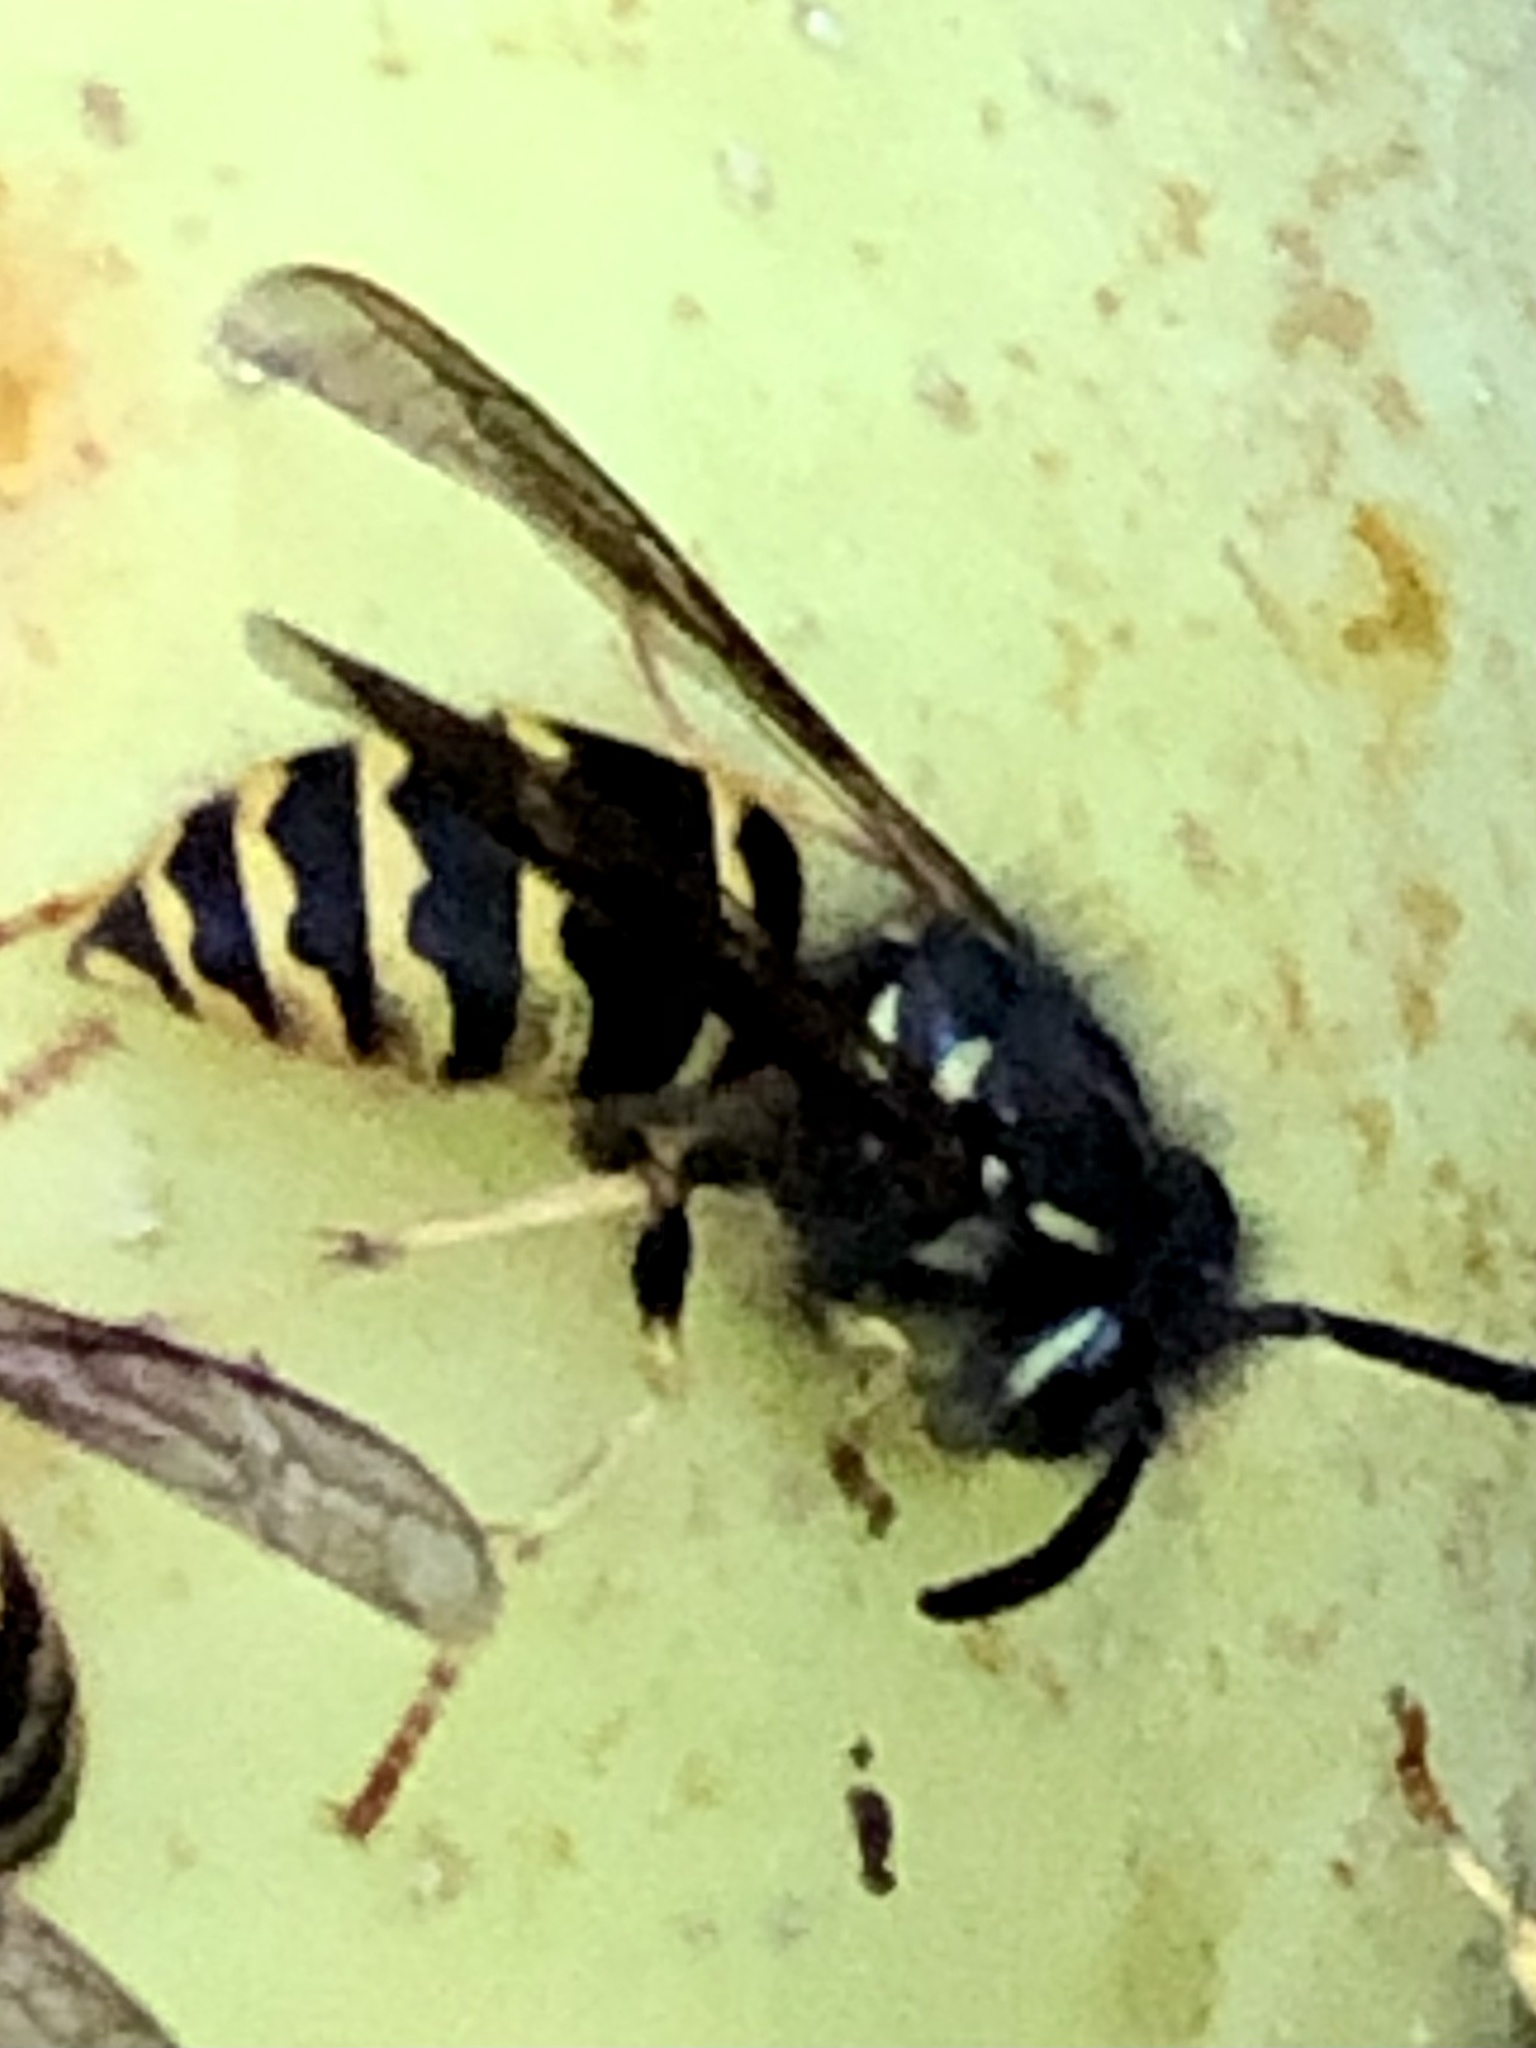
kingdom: Animalia
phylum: Arthropoda
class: Insecta
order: Hymenoptera
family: Vespidae
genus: Vespula
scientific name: Vespula alascensis
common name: Alaska yellowjacket
